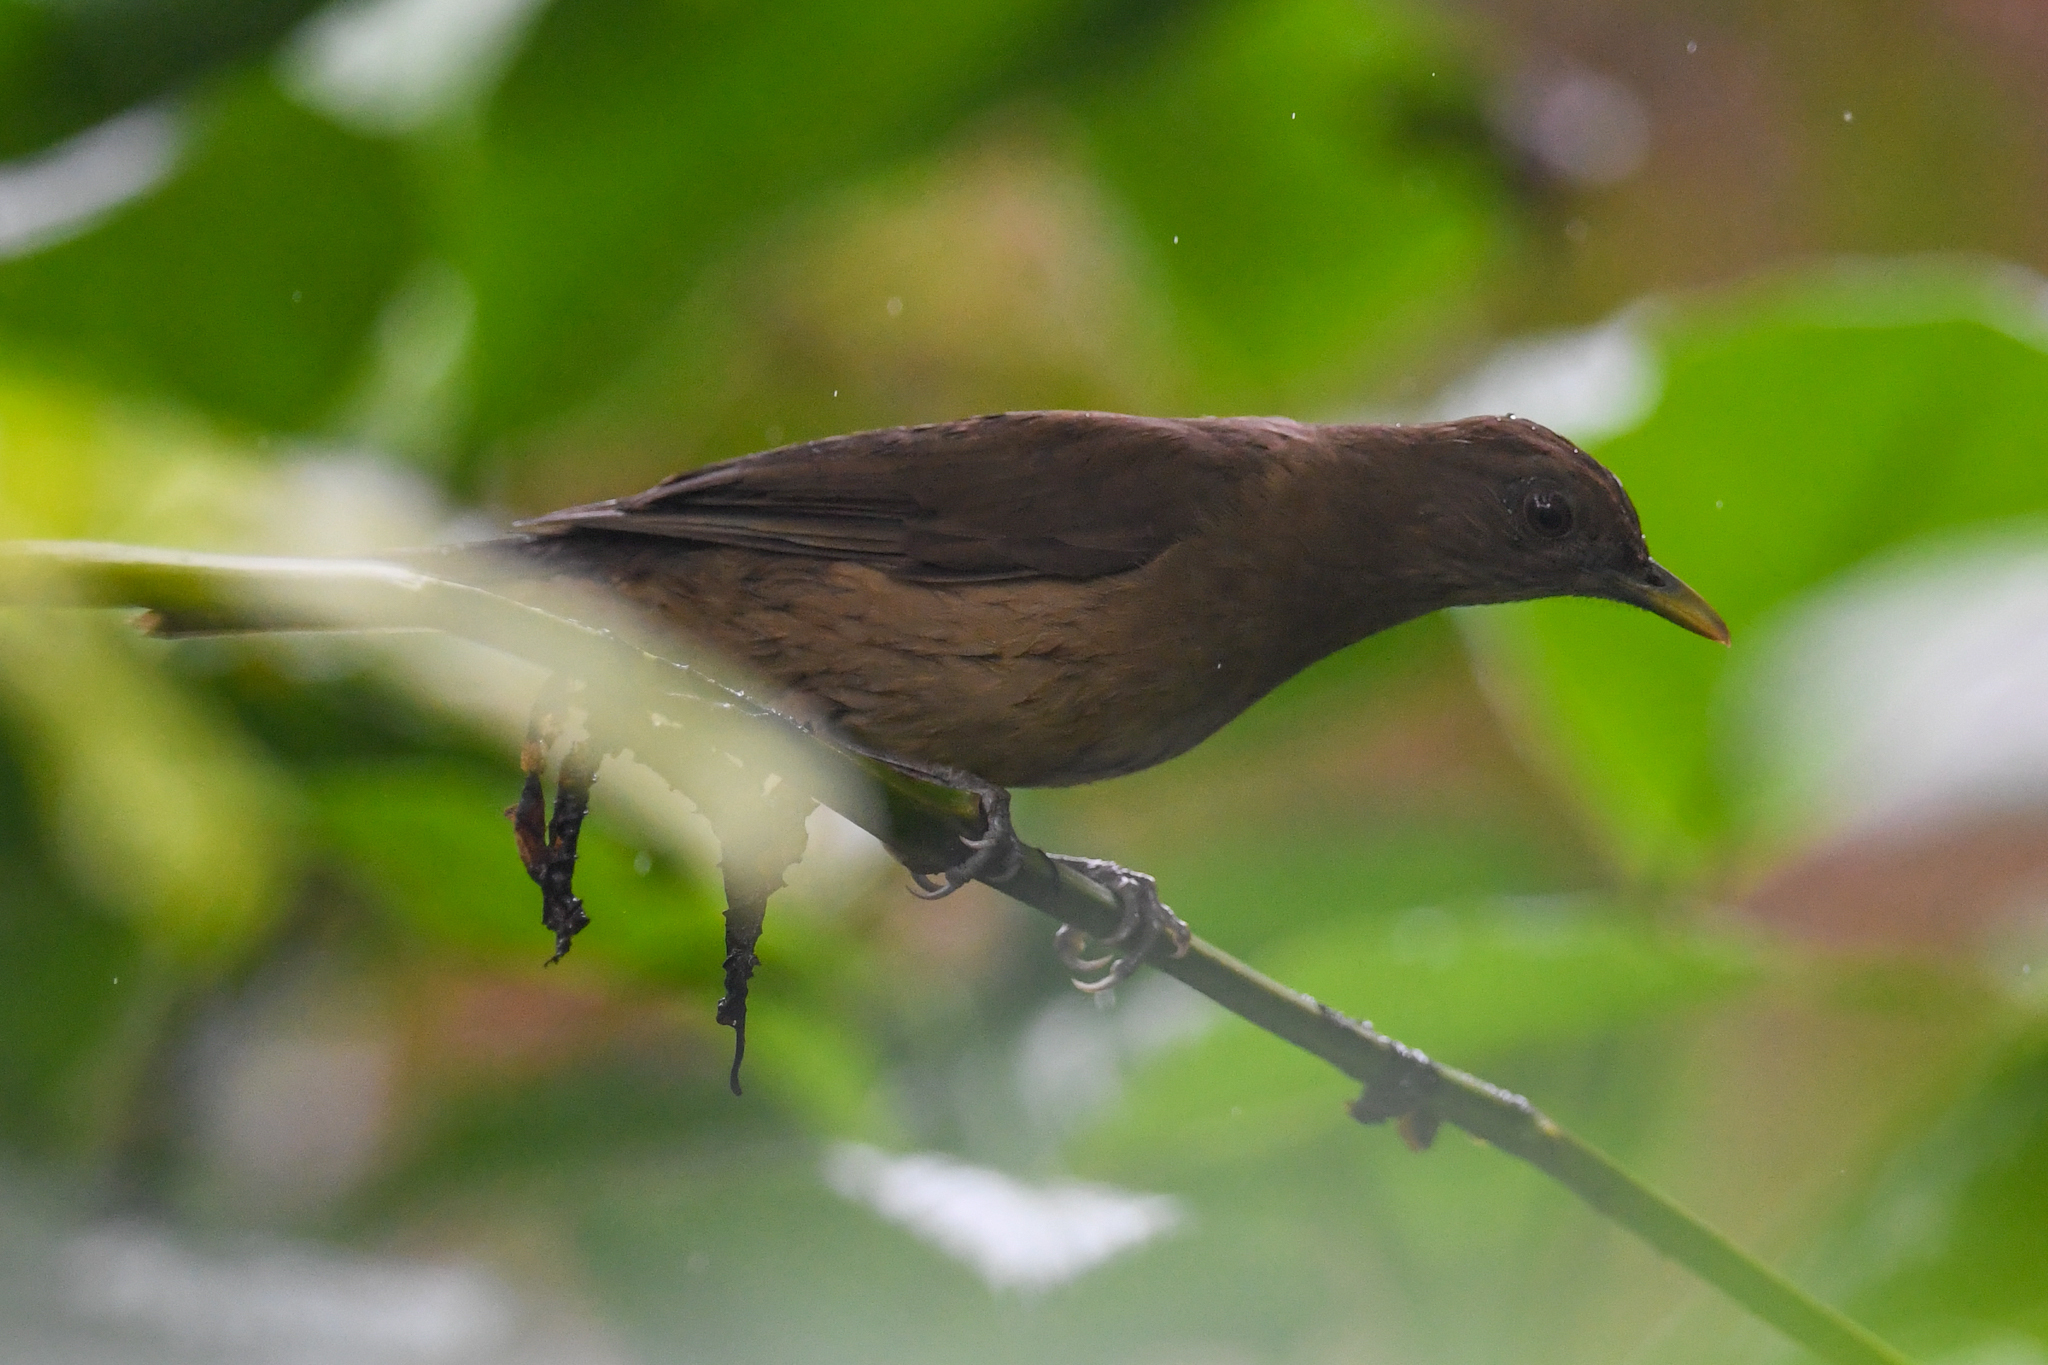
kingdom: Animalia
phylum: Chordata
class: Aves
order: Passeriformes
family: Turdidae
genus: Turdus
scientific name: Turdus grayi
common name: Clay-colored thrush
